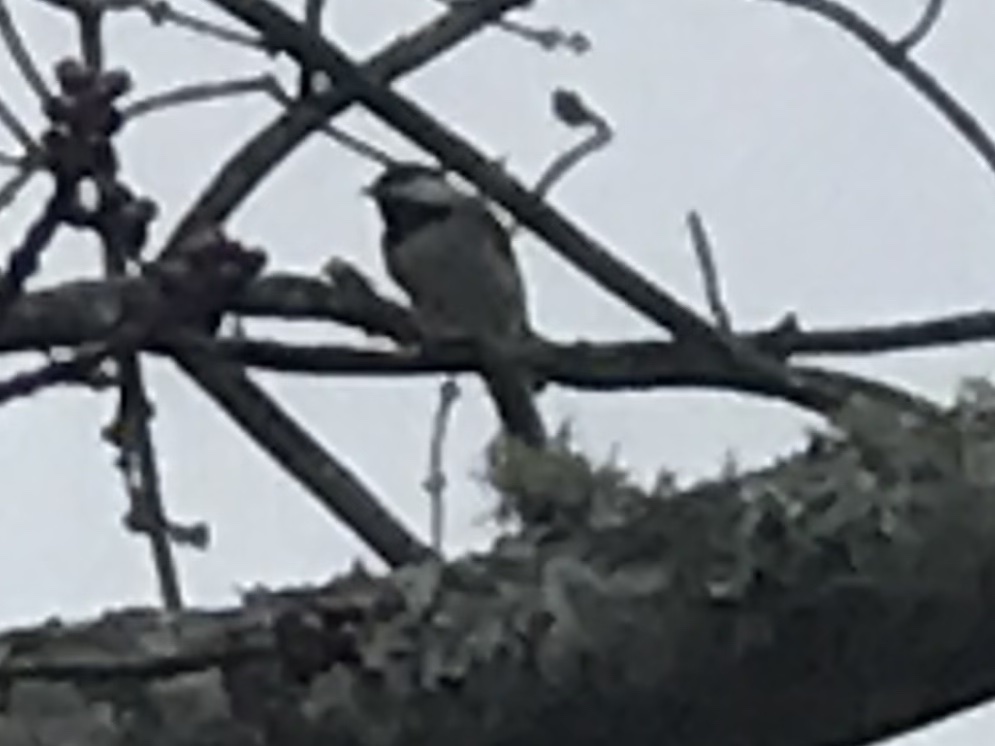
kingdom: Animalia
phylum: Chordata
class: Aves
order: Passeriformes
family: Paridae
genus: Poecile
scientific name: Poecile carolinensis
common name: Carolina chickadee
